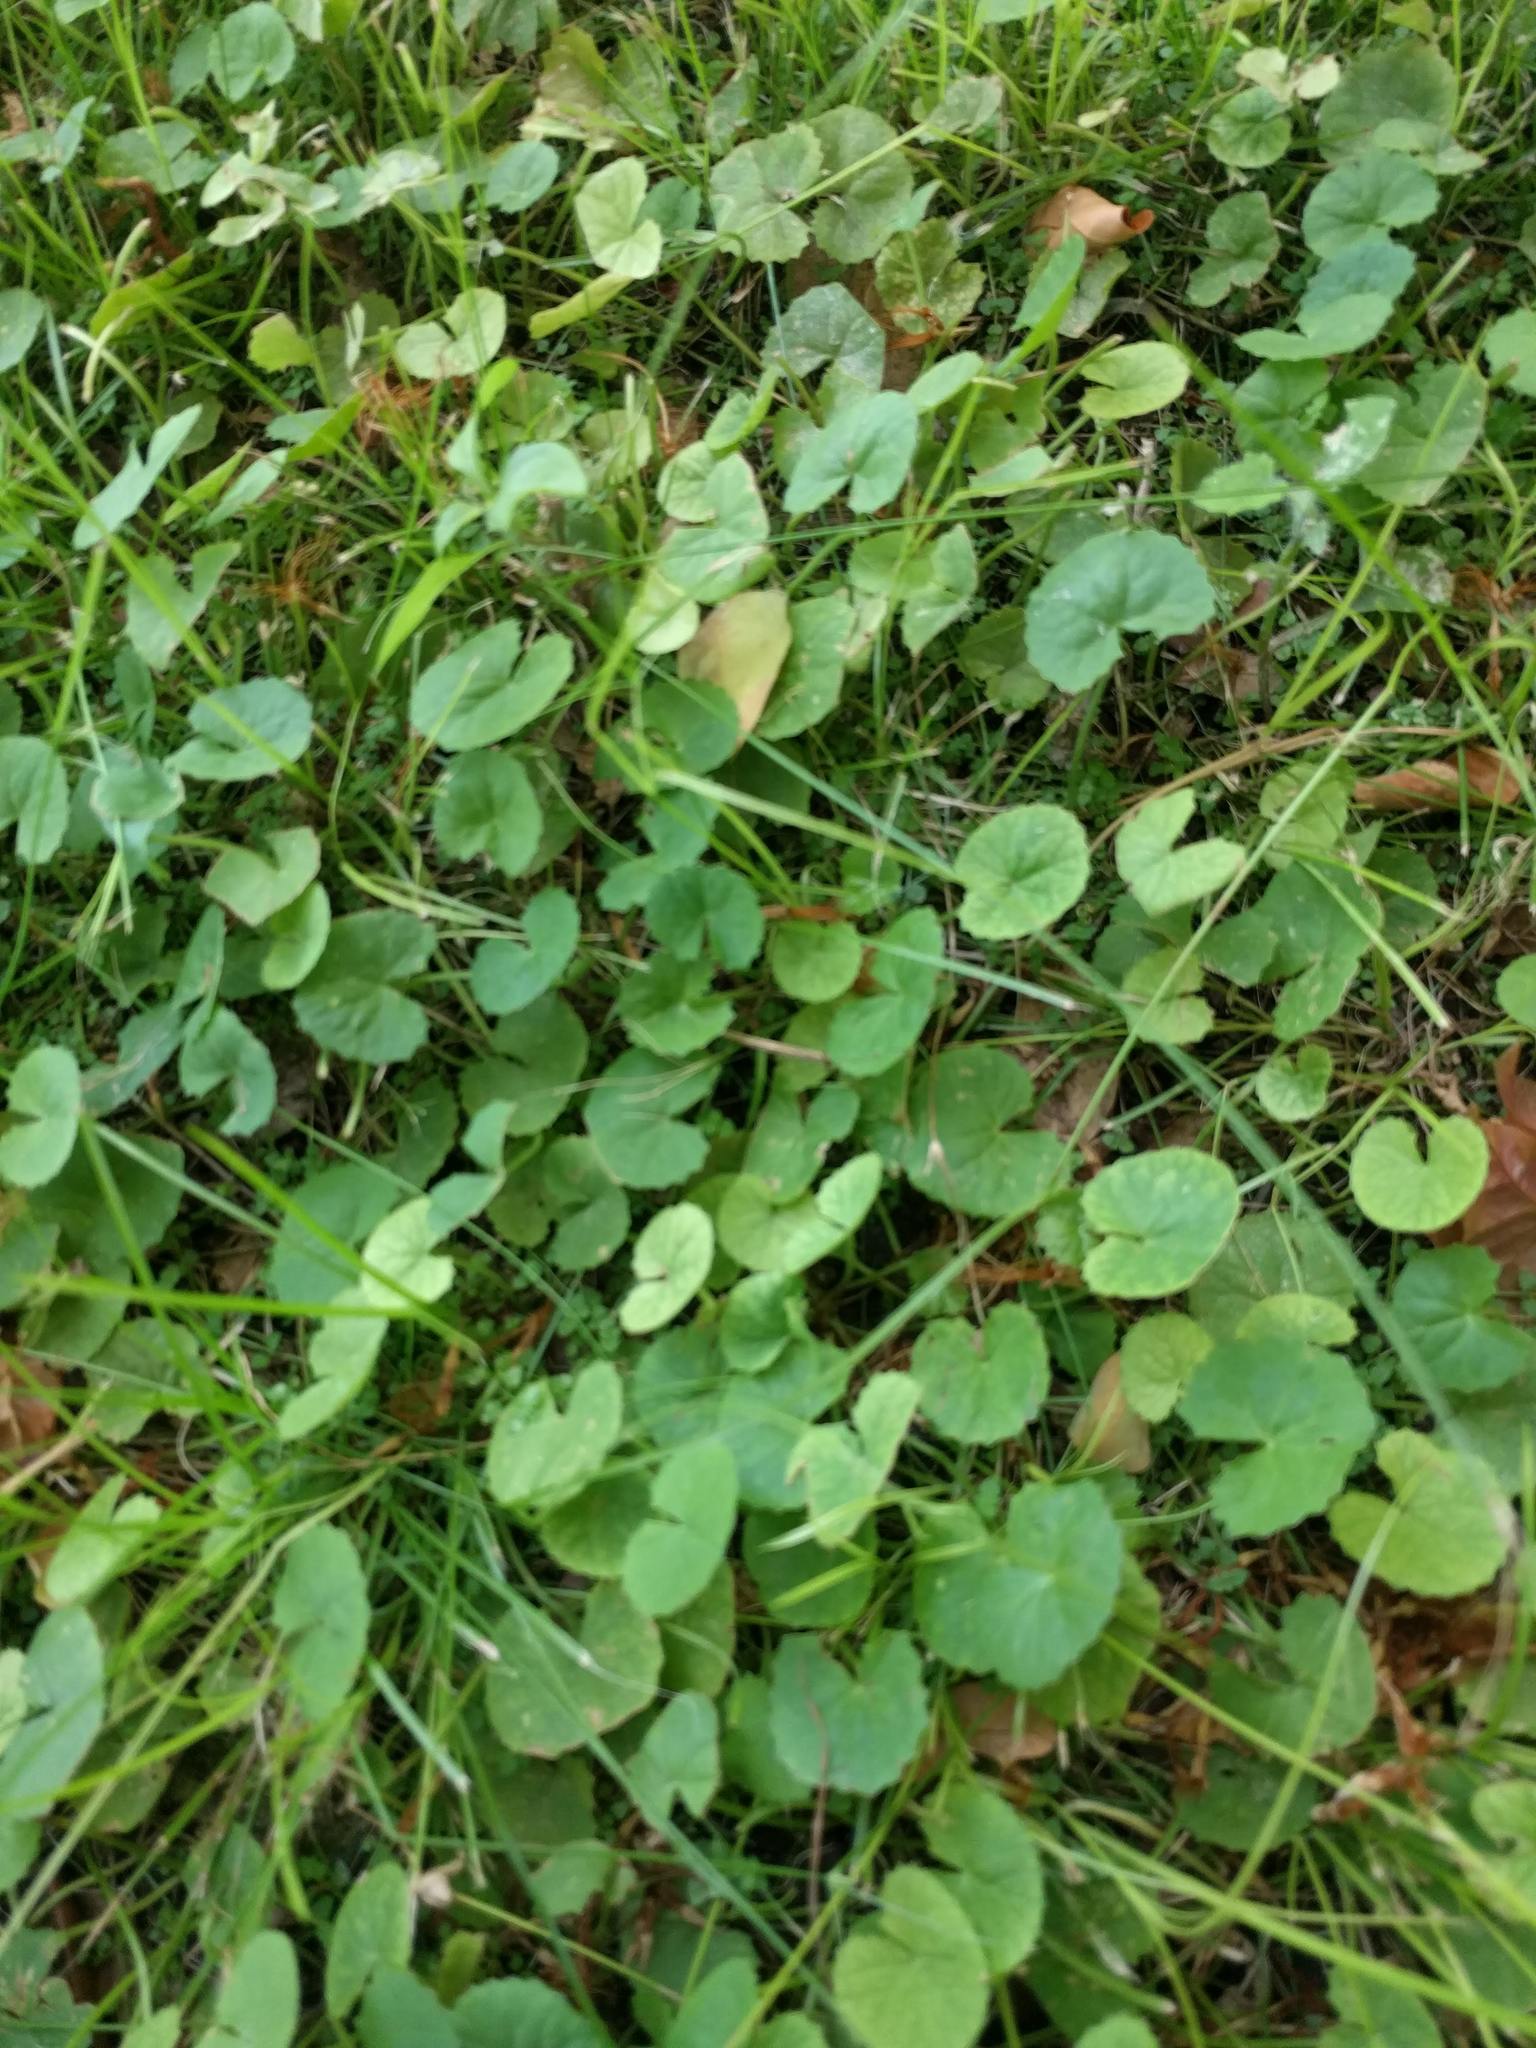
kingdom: Plantae
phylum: Tracheophyta
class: Magnoliopsida
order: Apiales
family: Apiaceae
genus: Centella
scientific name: Centella asiatica
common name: Spadeleaf
